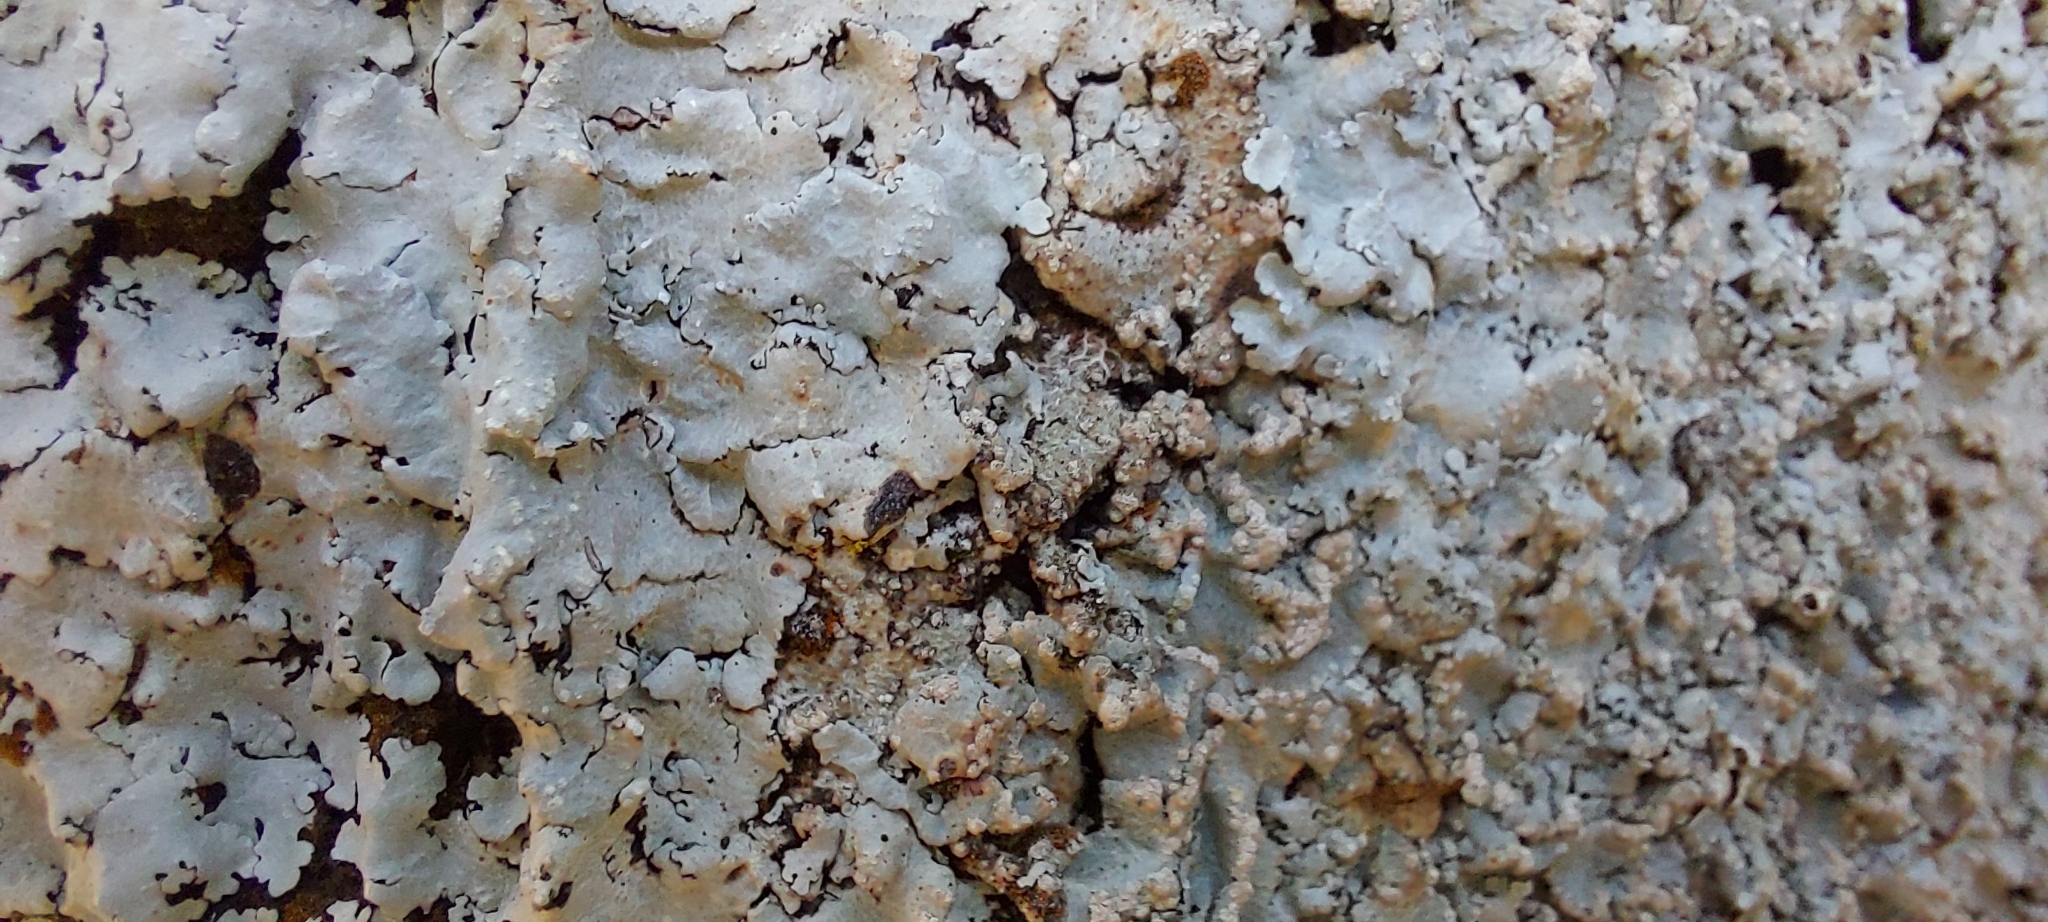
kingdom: Fungi
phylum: Ascomycota
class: Lecanoromycetes
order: Lecanorales
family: Parmeliaceae
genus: Flavoparmelia
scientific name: Flavoparmelia caperata
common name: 40-mile per hour lichen
